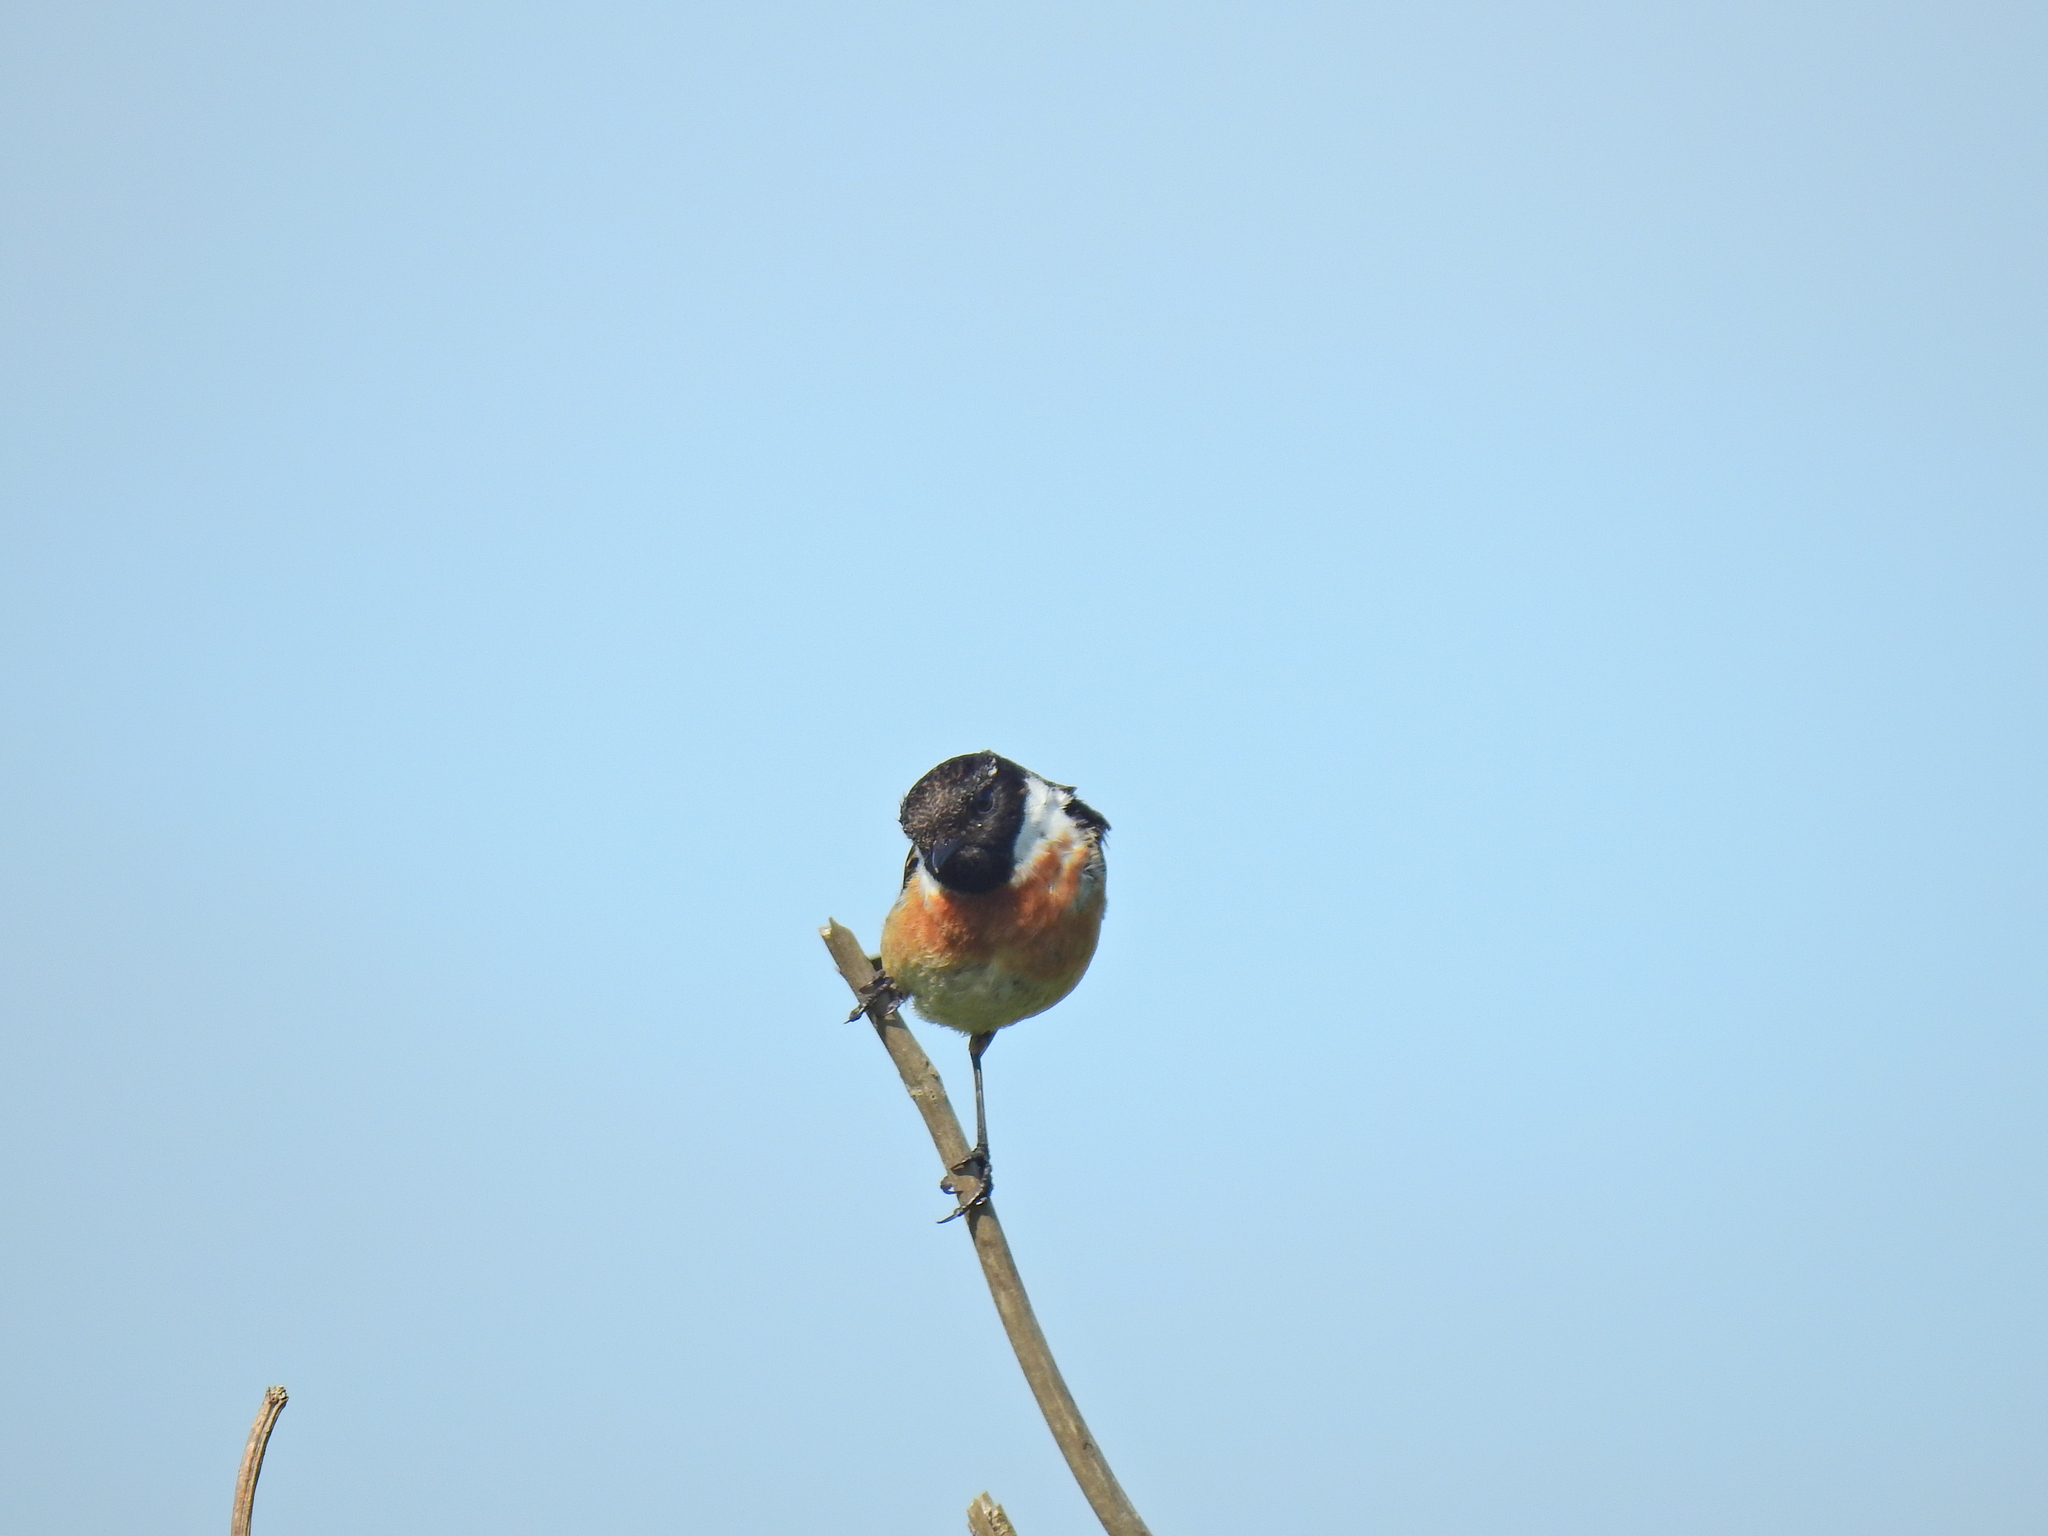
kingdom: Animalia
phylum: Chordata
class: Aves
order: Passeriformes
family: Muscicapidae
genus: Saxicola
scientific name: Saxicola rubicola
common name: European stonechat
